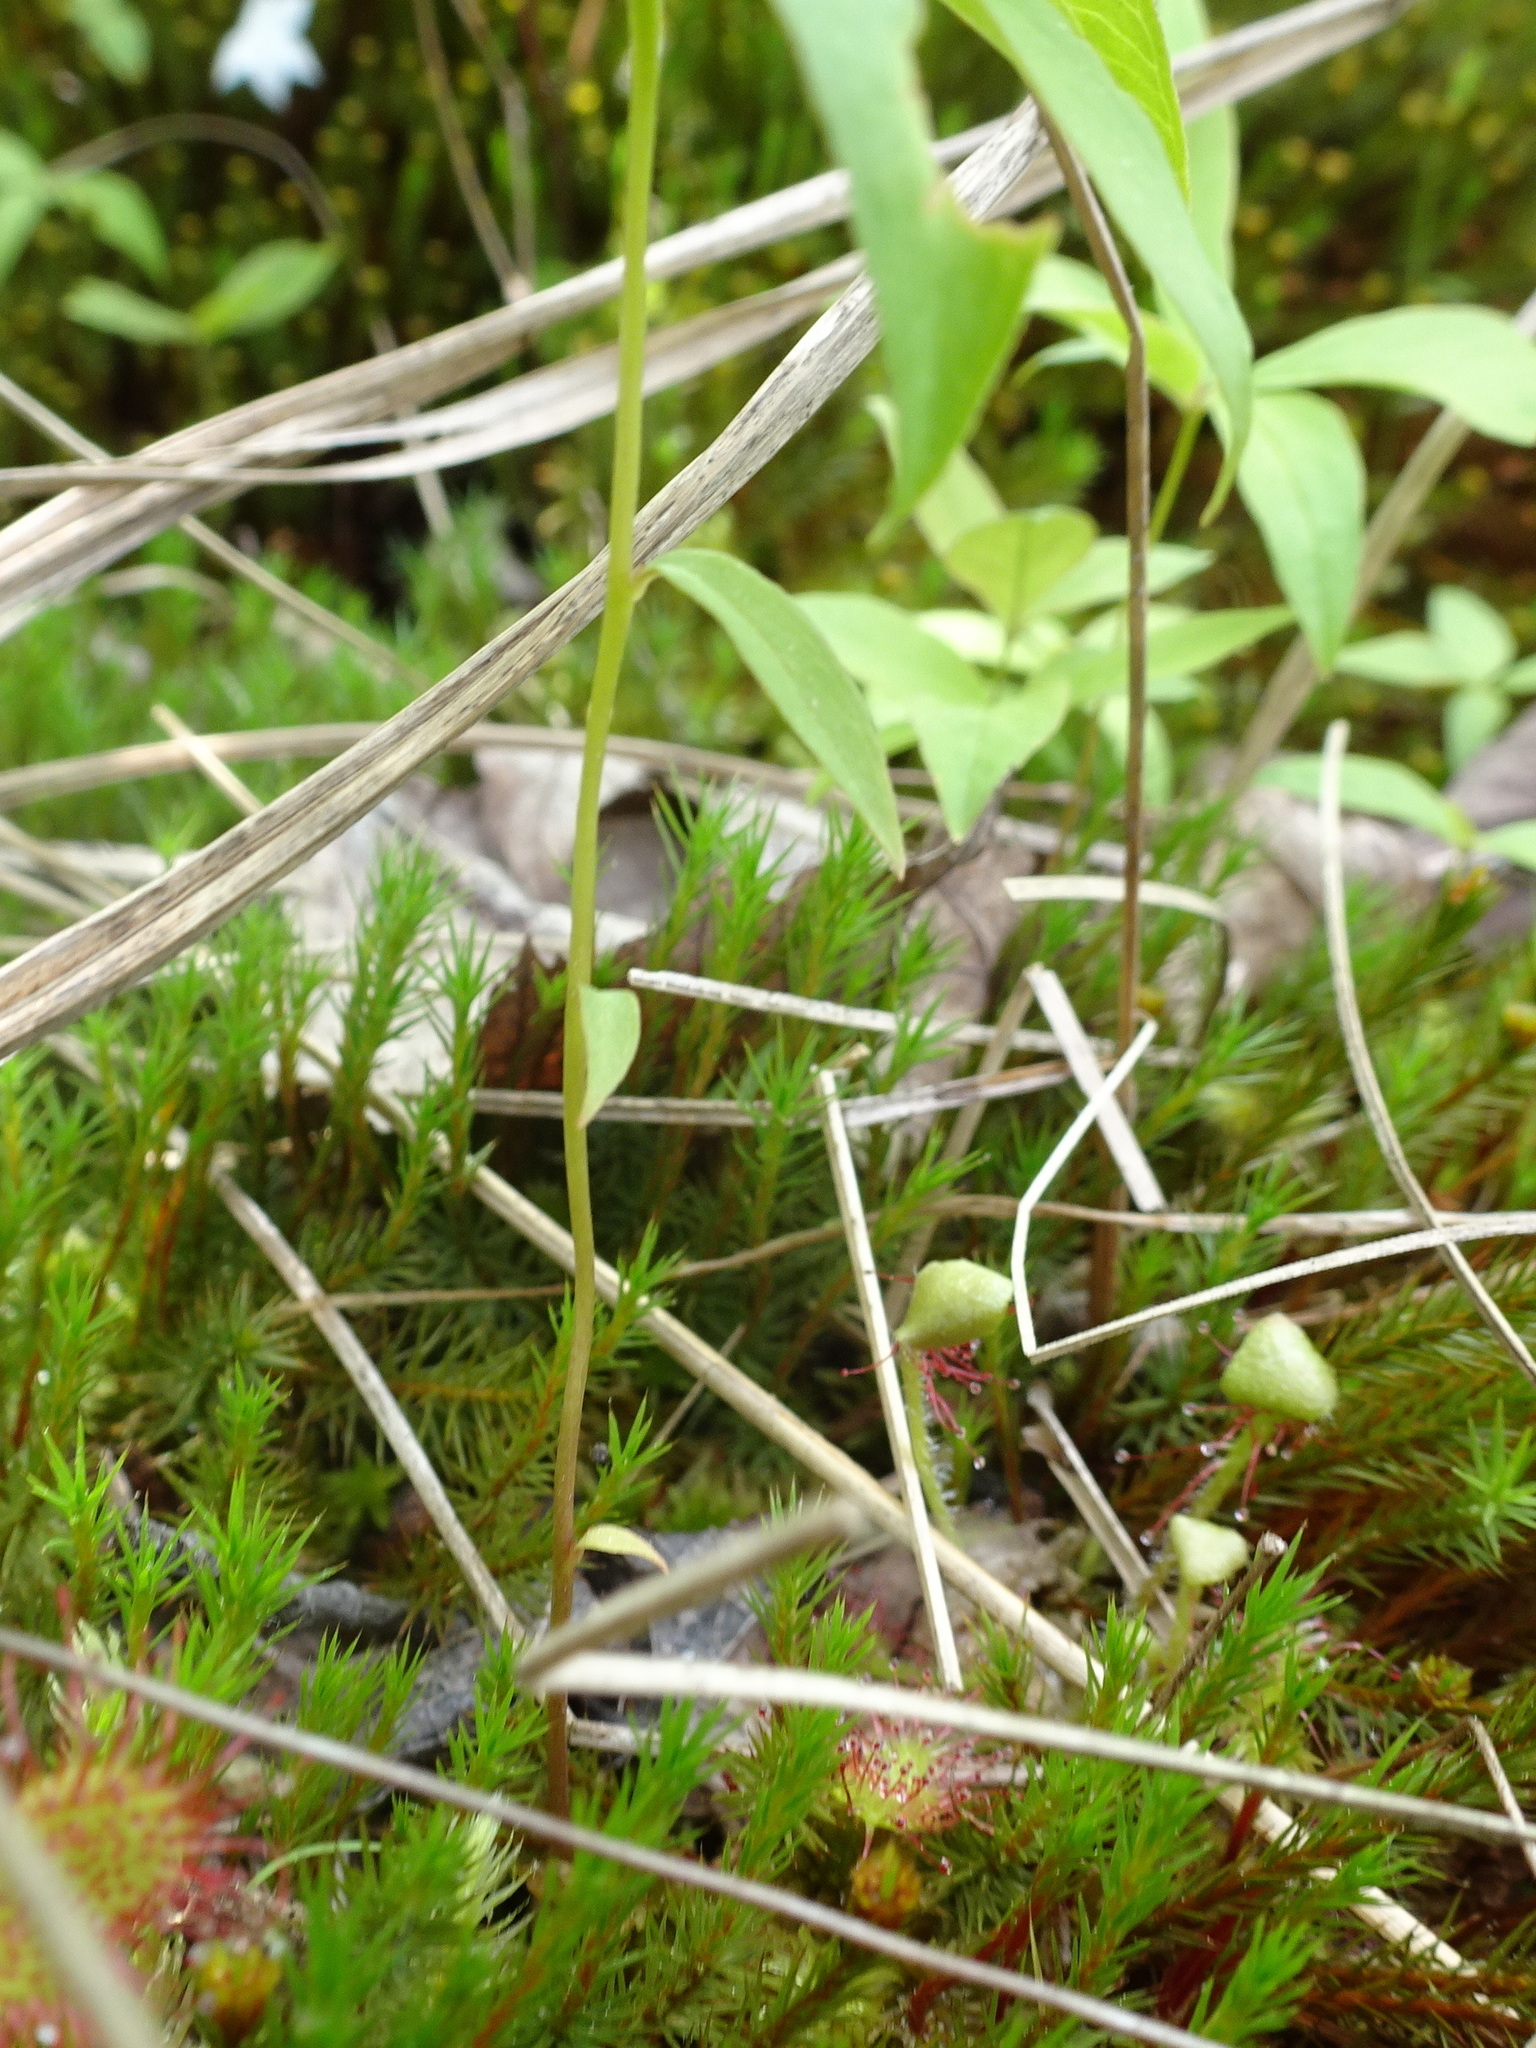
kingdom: Plantae
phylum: Tracheophyta
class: Magnoliopsida
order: Ericales
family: Primulaceae
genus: Lysimachia
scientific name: Lysimachia borealis
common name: American starflower
